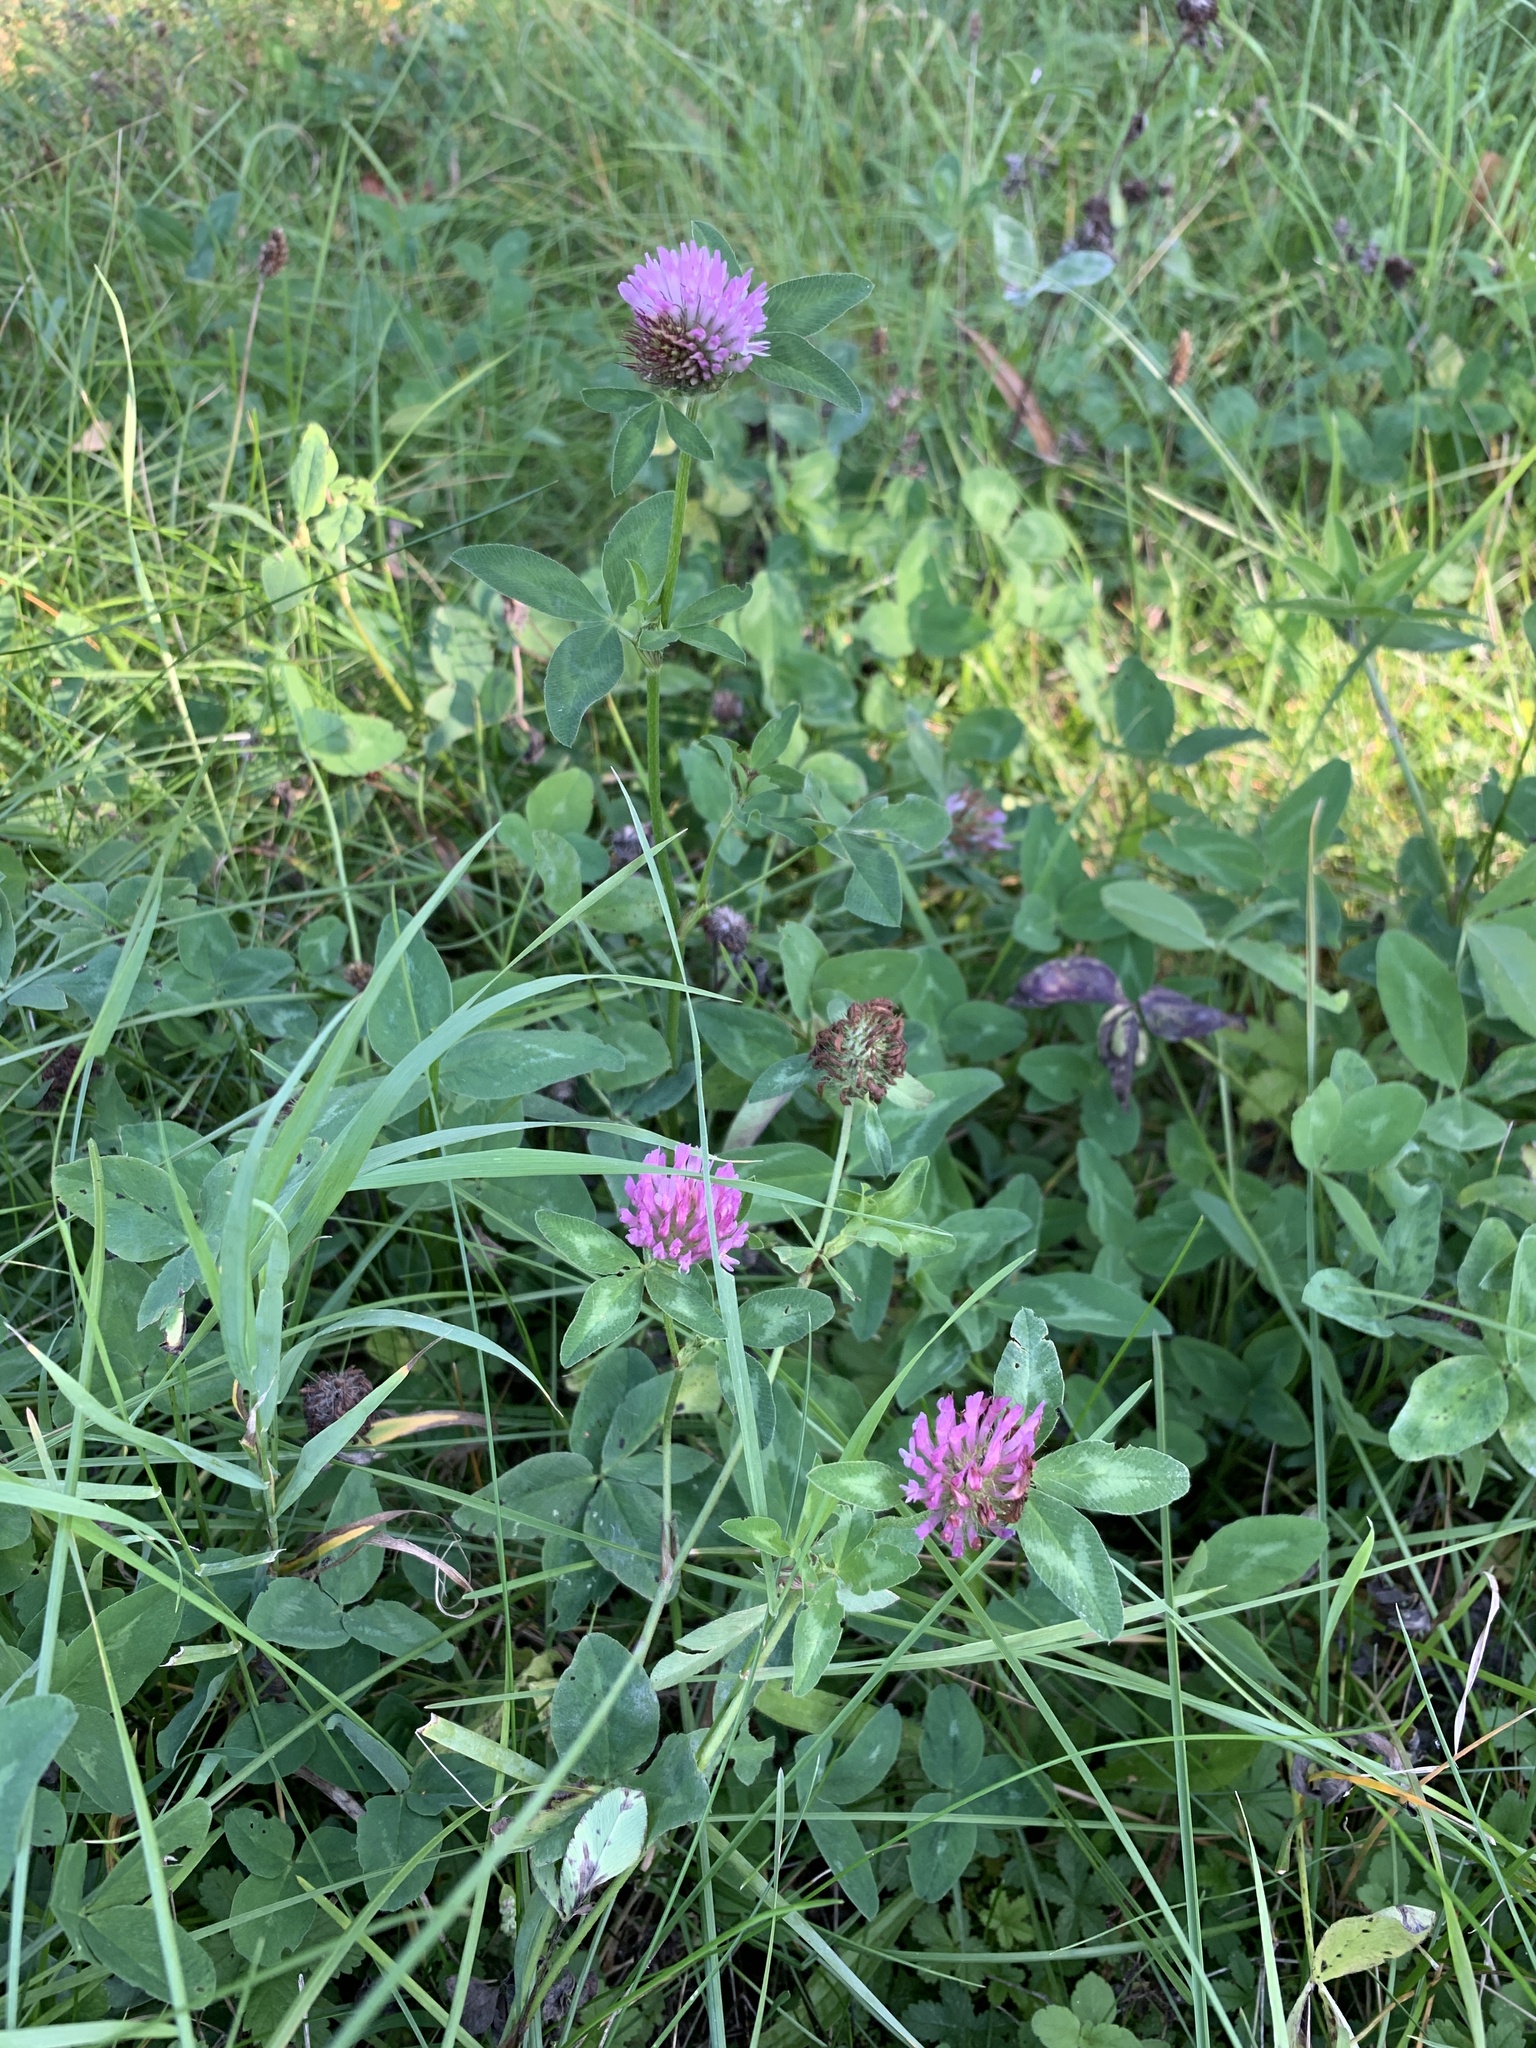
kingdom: Plantae
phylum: Tracheophyta
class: Magnoliopsida
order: Geraniales
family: Geraniaceae
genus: Geranium
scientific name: Geranium pyrenaicum
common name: Hedgerow crane's-bill
